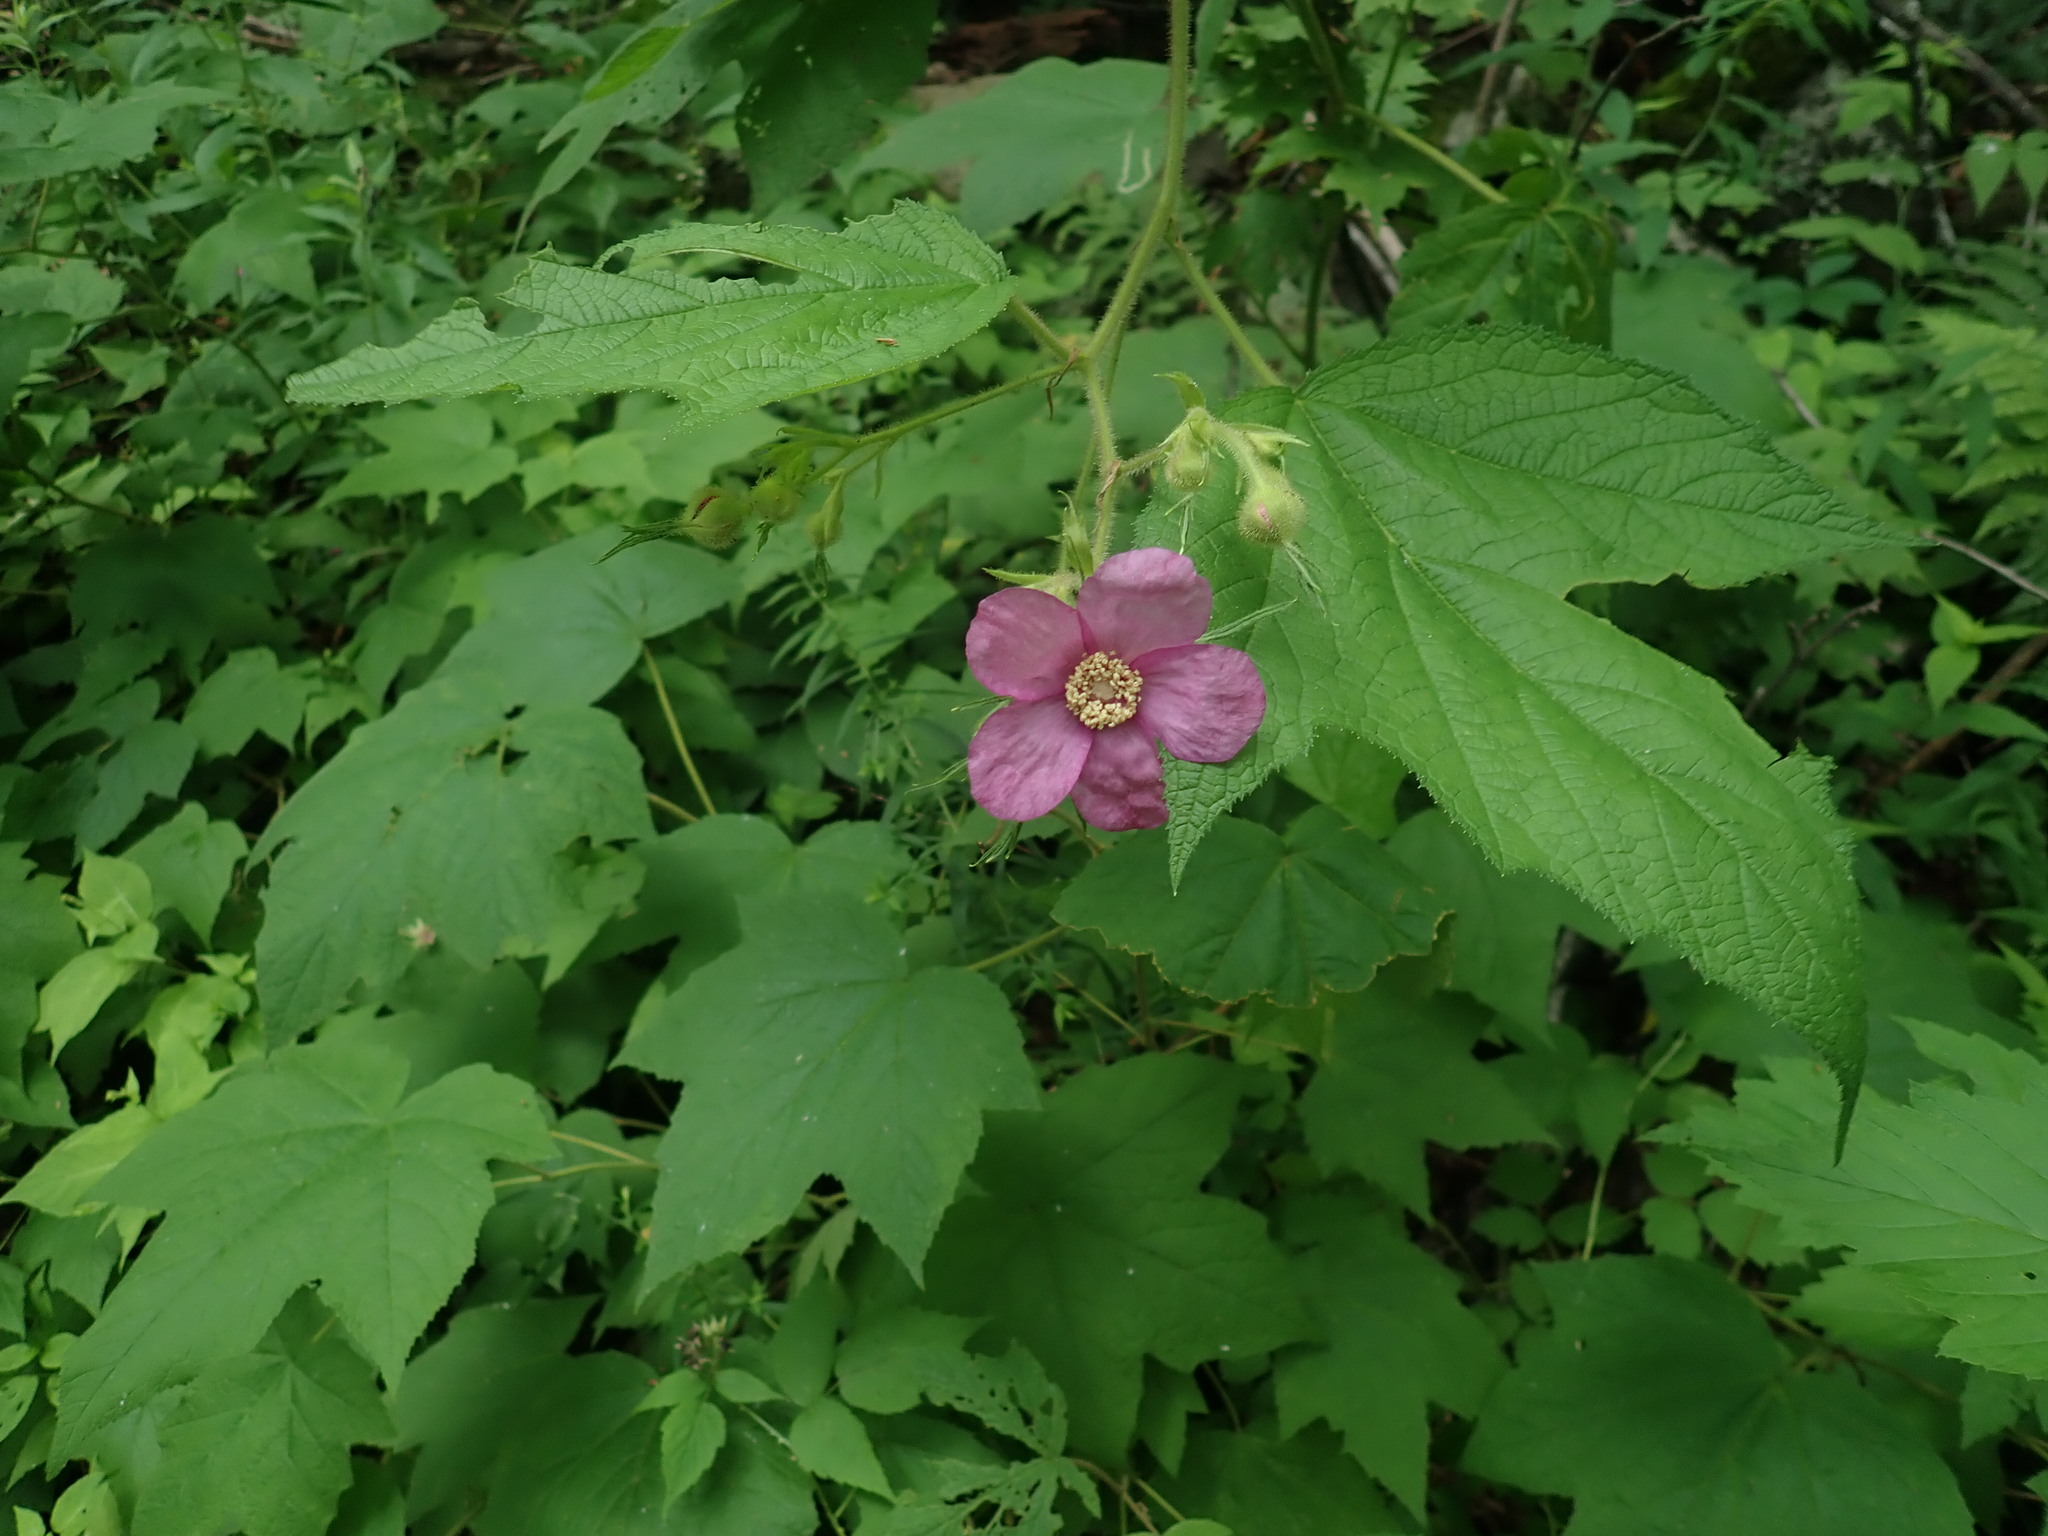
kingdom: Plantae
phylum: Tracheophyta
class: Magnoliopsida
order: Rosales
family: Rosaceae
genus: Rubus
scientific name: Rubus odoratus
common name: Purple-flowered raspberry
